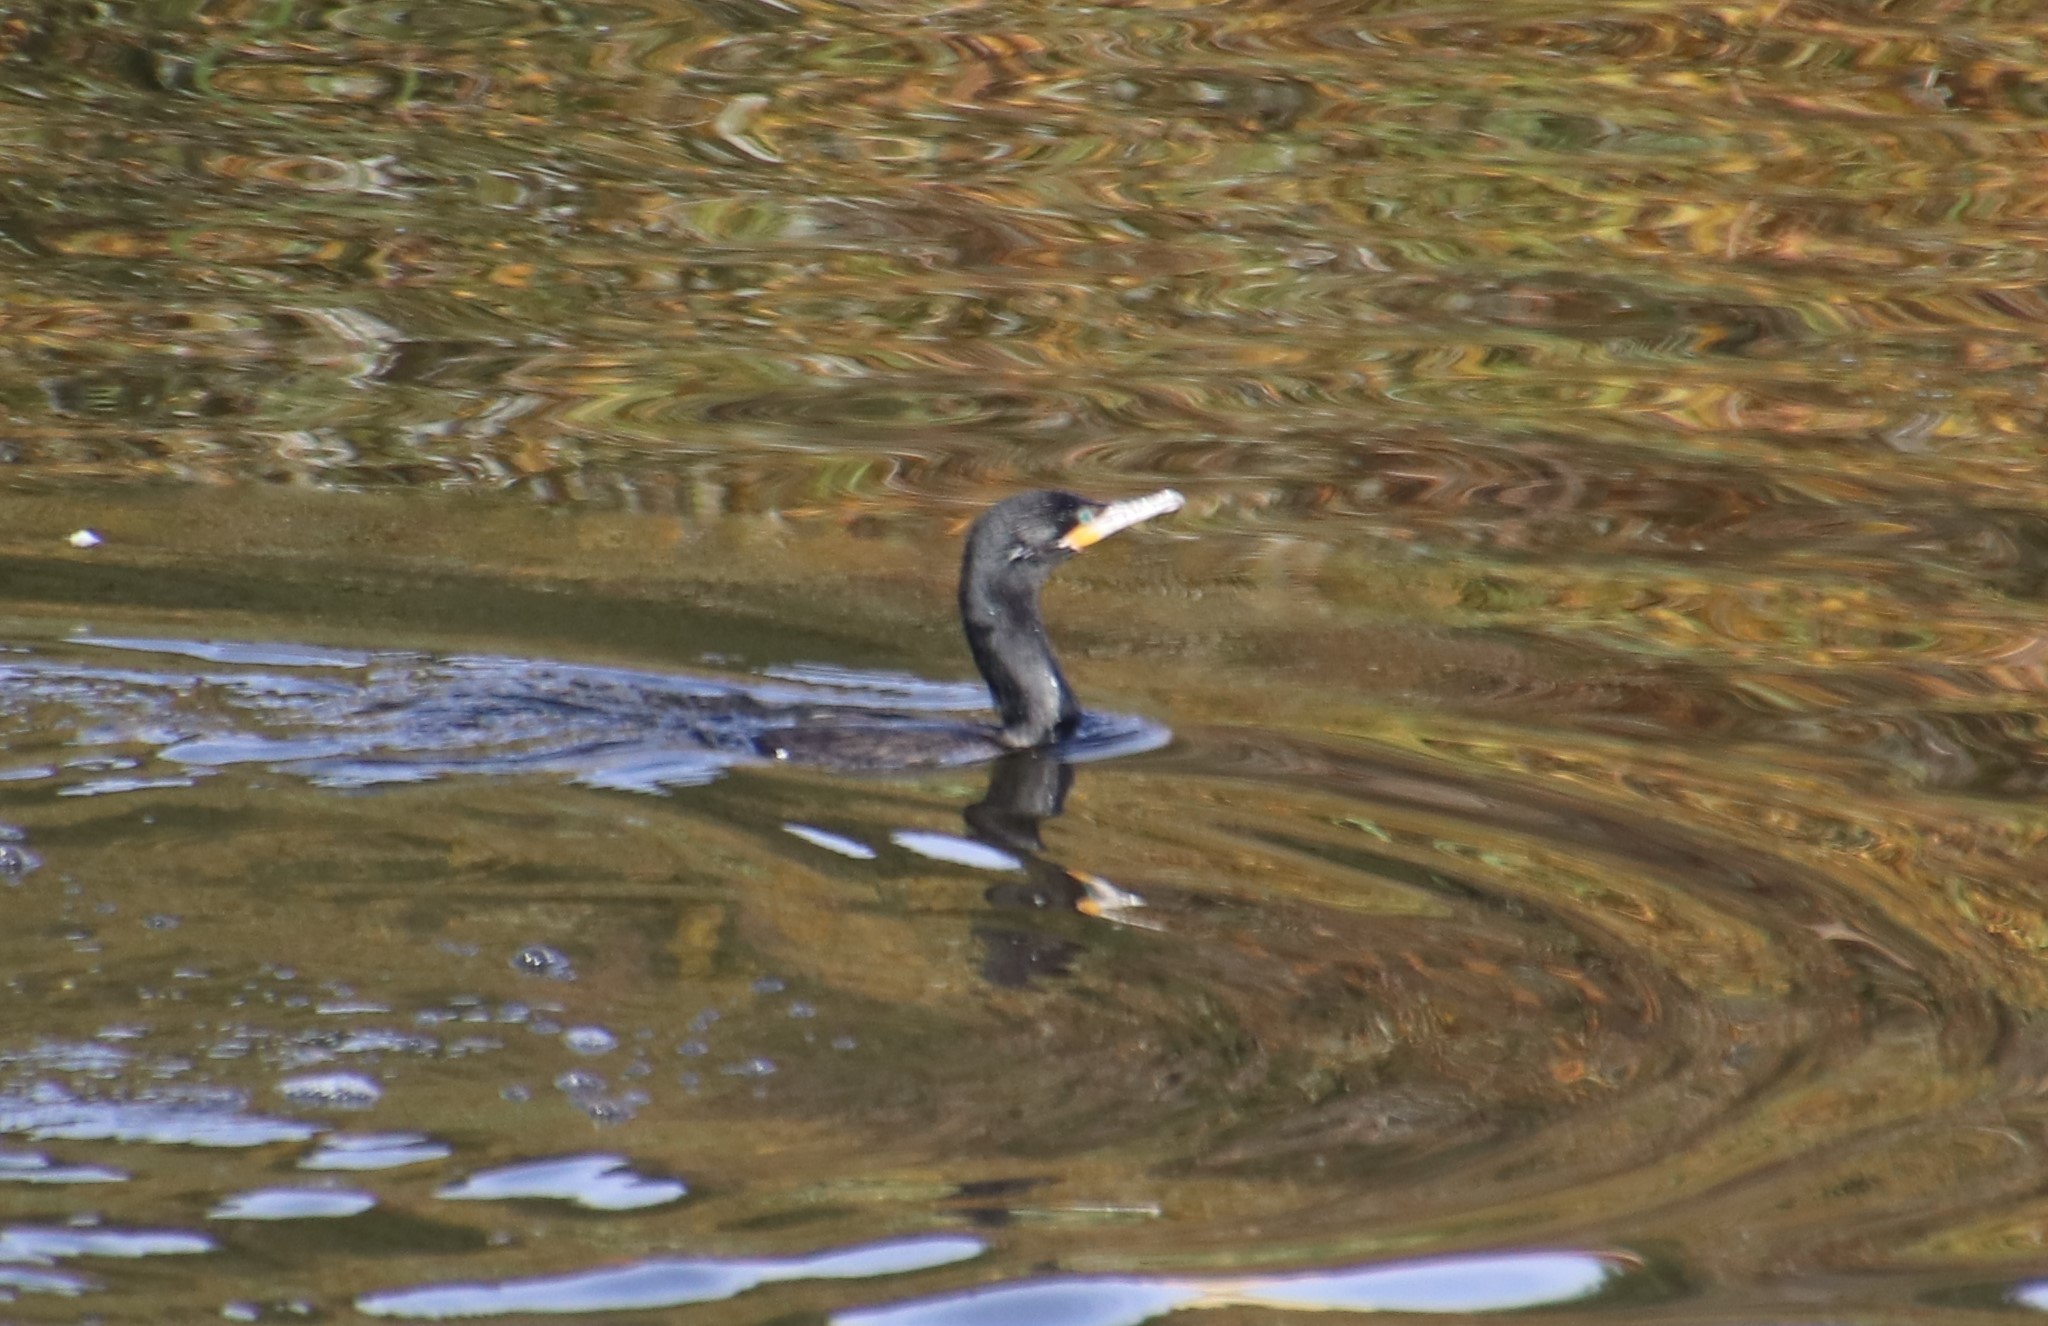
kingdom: Animalia
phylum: Chordata
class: Aves
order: Suliformes
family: Phalacrocoracidae
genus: Phalacrocorax
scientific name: Phalacrocorax brasilianus
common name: Neotropic cormorant
